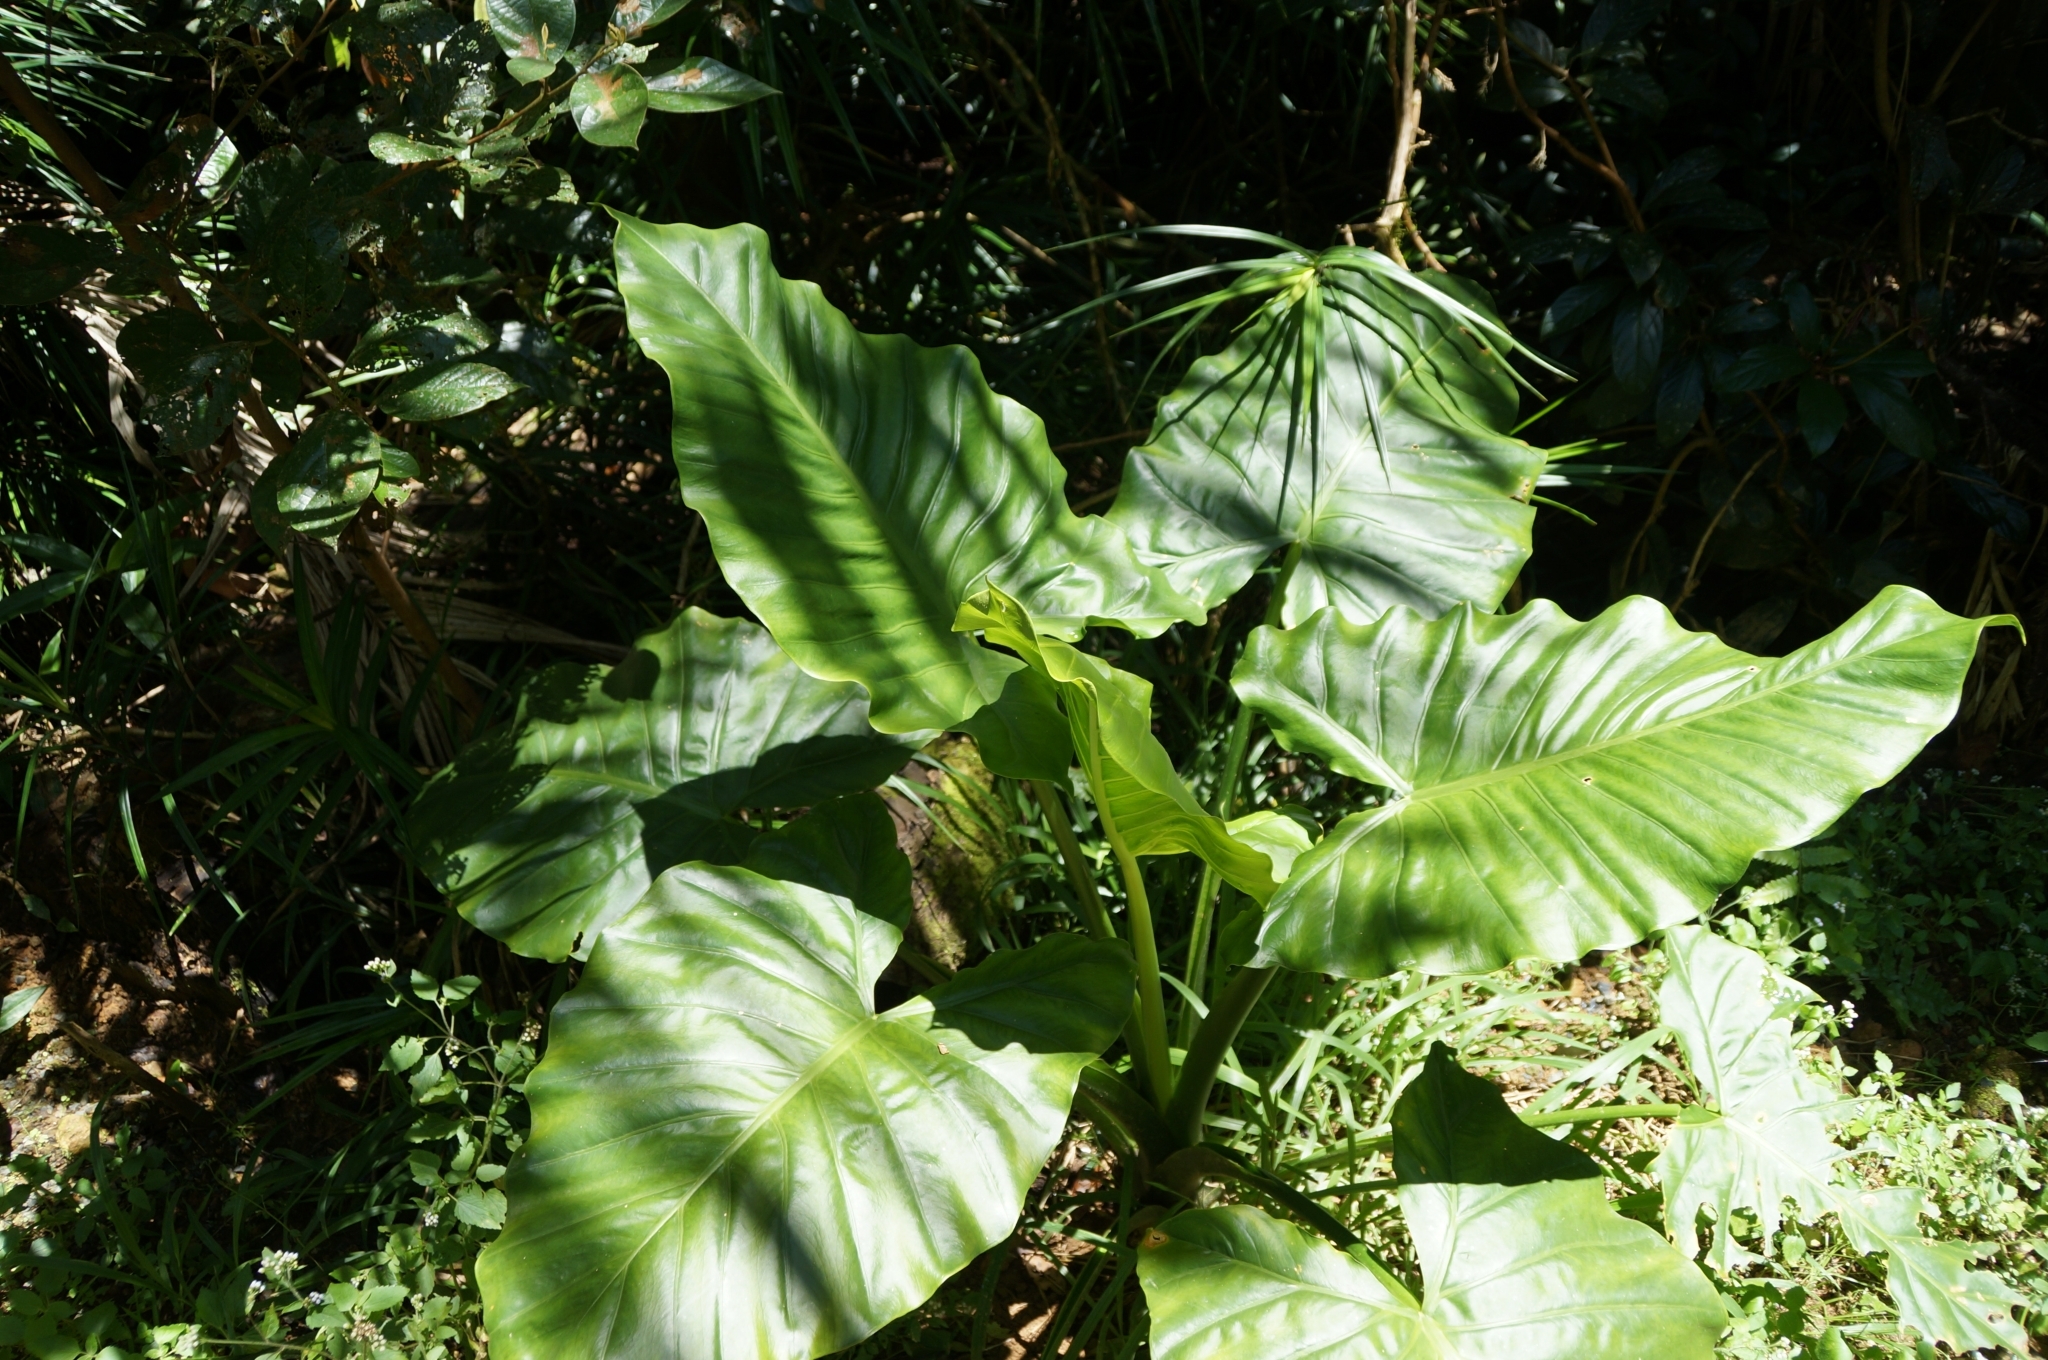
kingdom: Plantae
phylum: Tracheophyta
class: Liliopsida
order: Alismatales
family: Araceae
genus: Alocasia
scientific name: Alocasia brisbanensis
